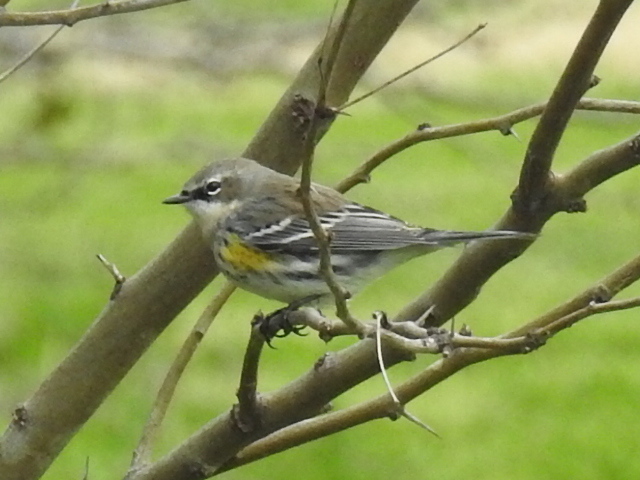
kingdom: Animalia
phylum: Chordata
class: Aves
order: Passeriformes
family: Parulidae
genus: Setophaga
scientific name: Setophaga coronata
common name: Myrtle warbler
